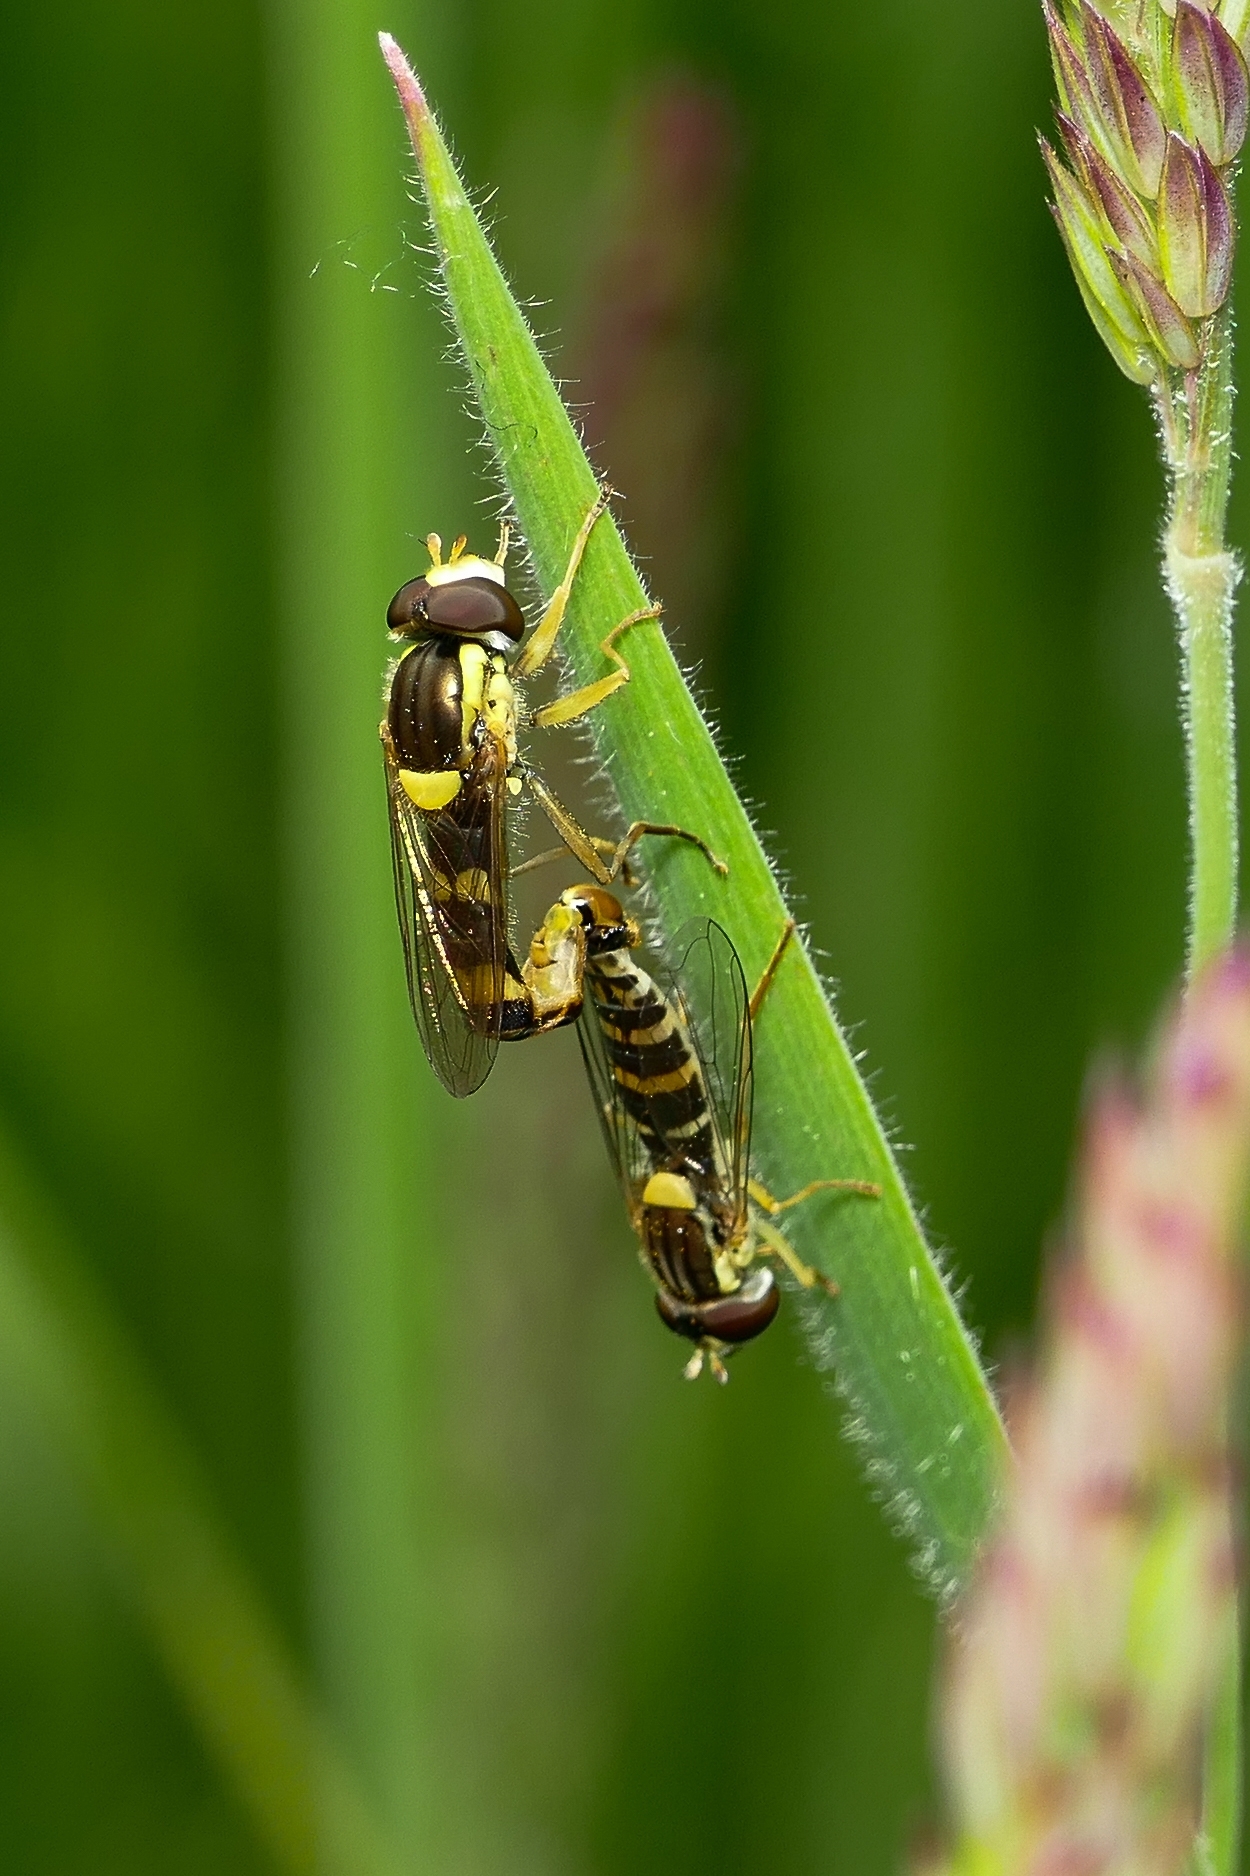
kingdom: Animalia
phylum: Arthropoda
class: Insecta
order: Diptera
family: Syrphidae
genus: Sphaerophoria
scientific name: Sphaerophoria scripta
